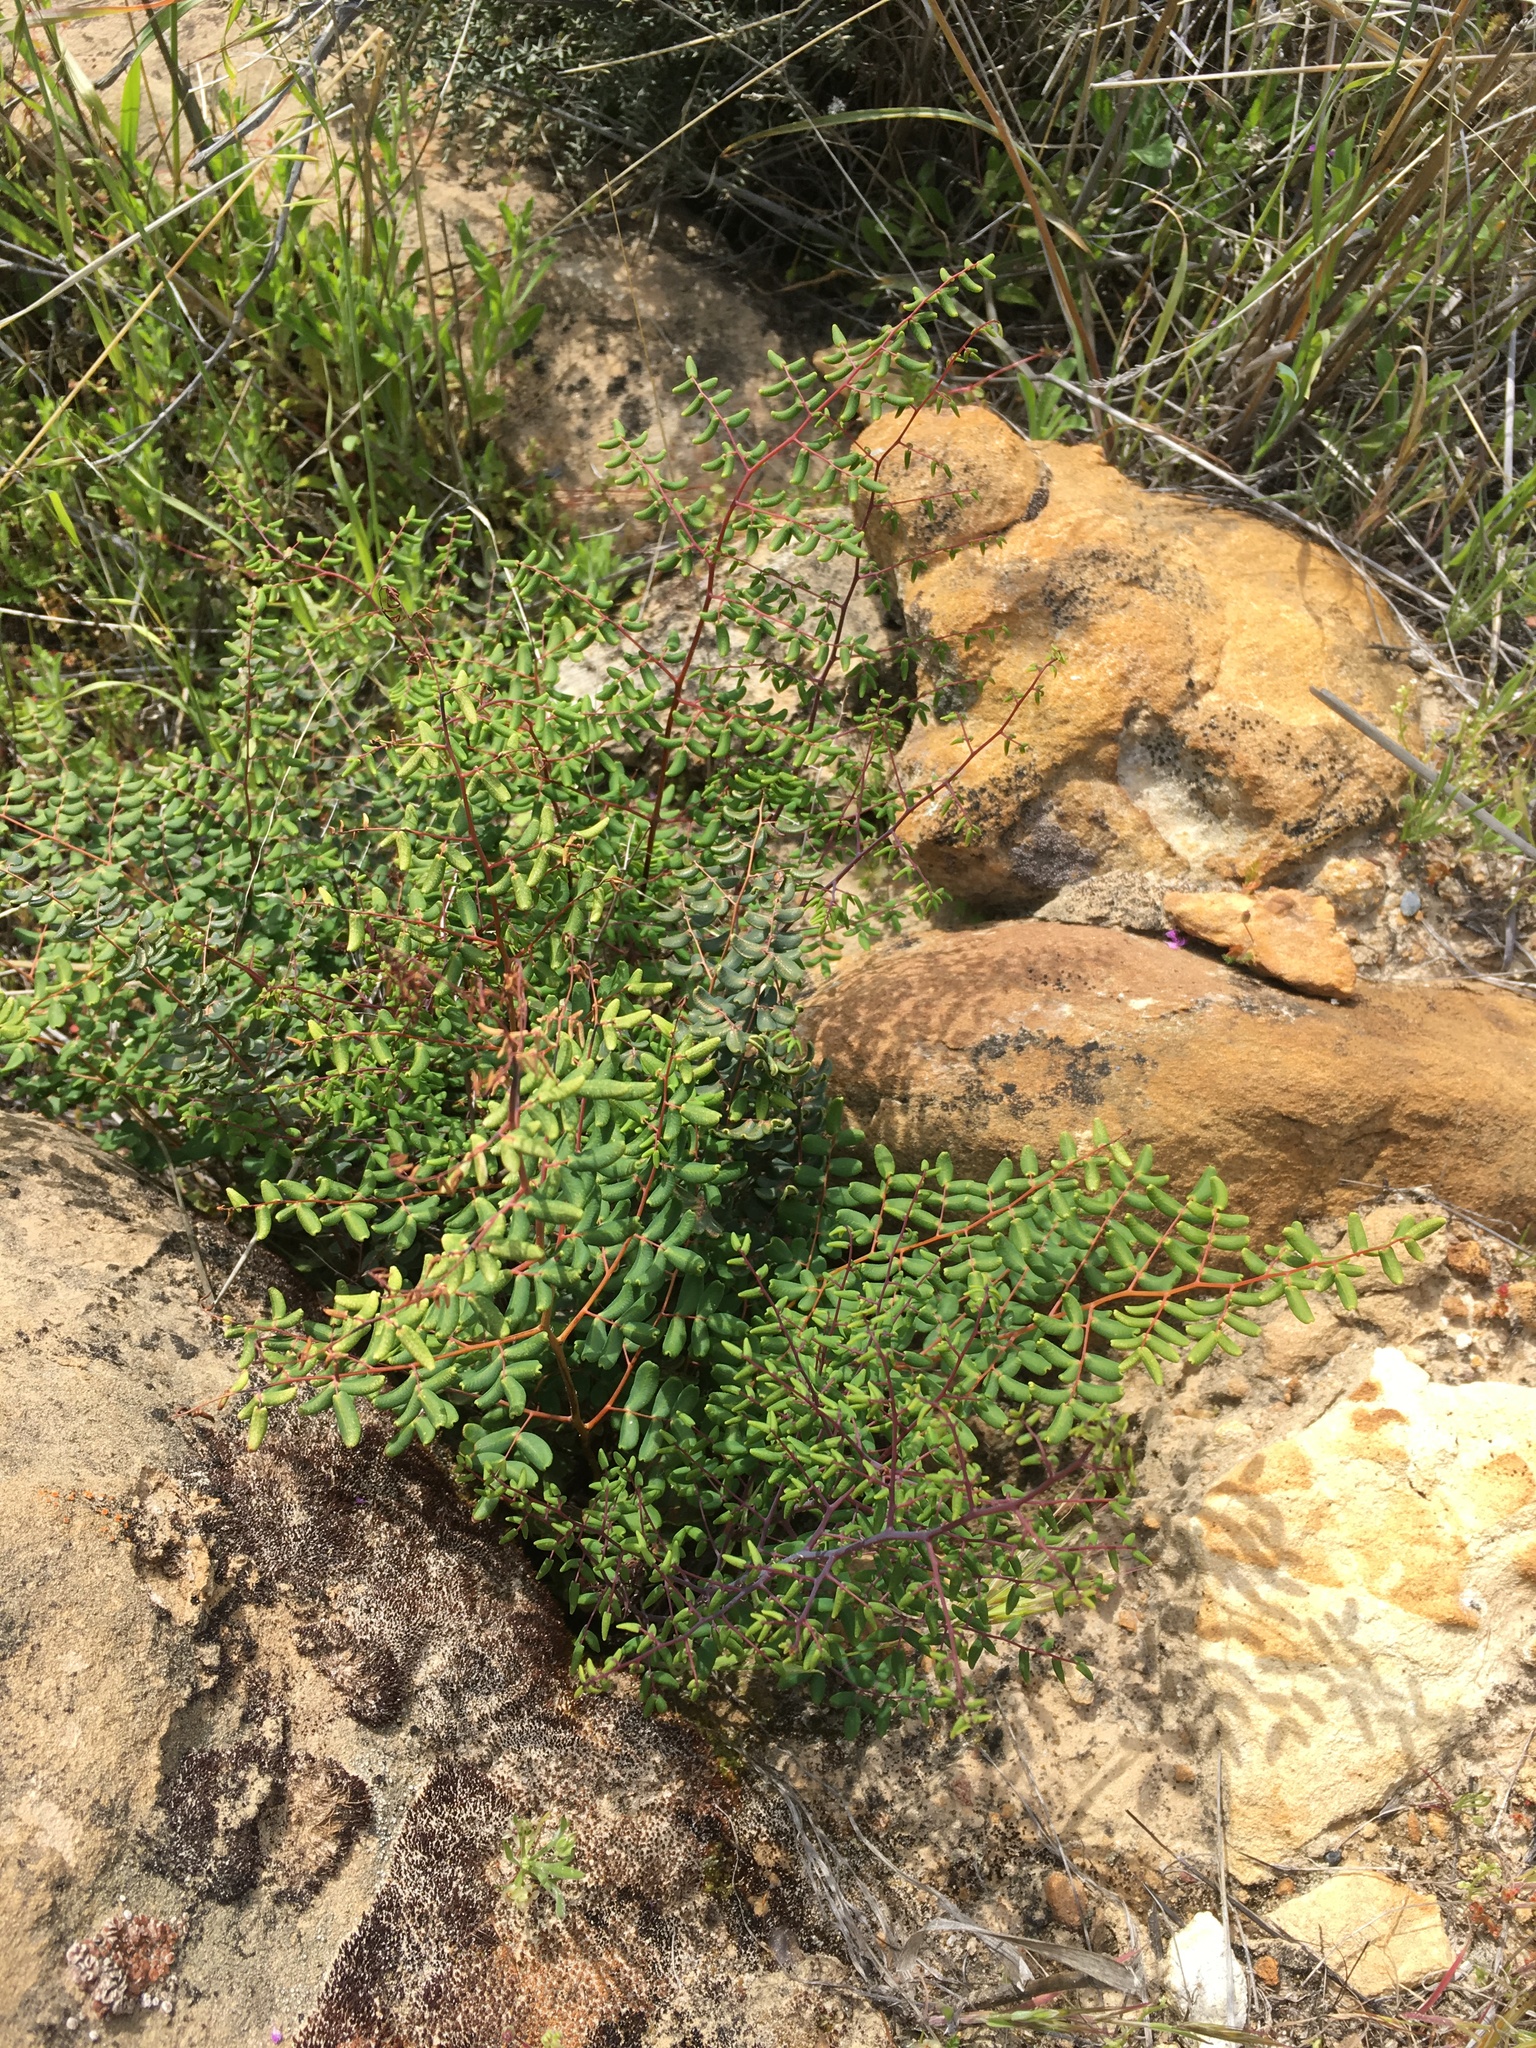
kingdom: Plantae
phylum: Tracheophyta
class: Polypodiopsida
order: Polypodiales
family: Pteridaceae
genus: Pellaea
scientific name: Pellaea andromedifolia
